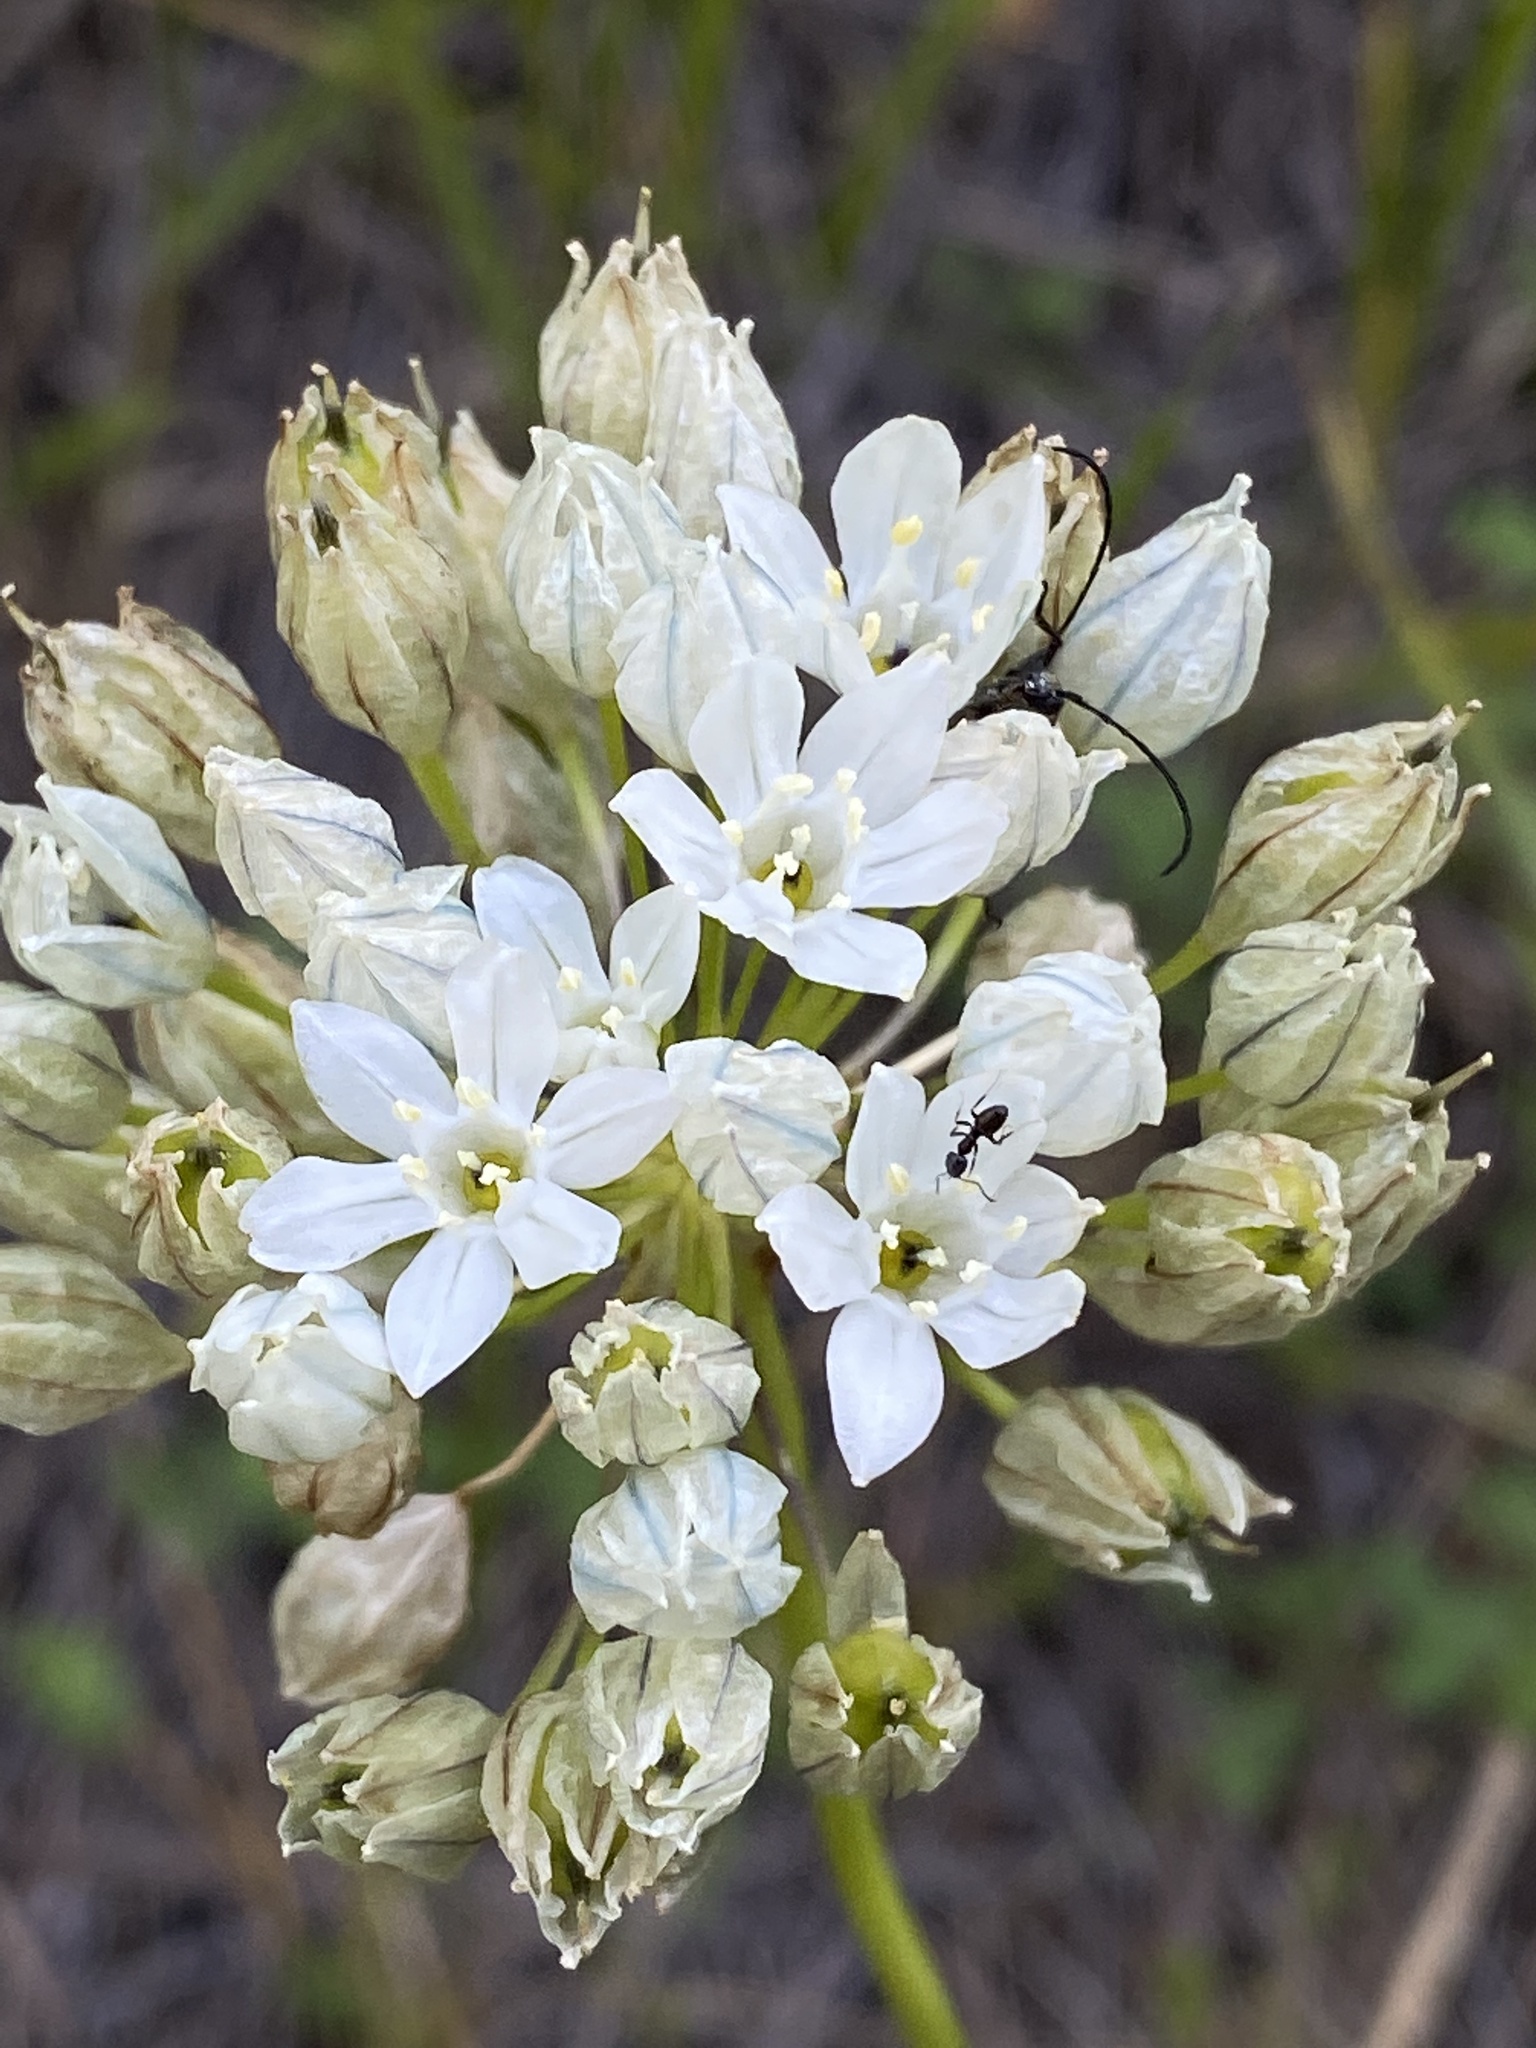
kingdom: Plantae
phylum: Tracheophyta
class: Liliopsida
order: Asparagales
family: Asparagaceae
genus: Triteleia
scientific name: Triteleia hyacinthina
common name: White brodiaea
